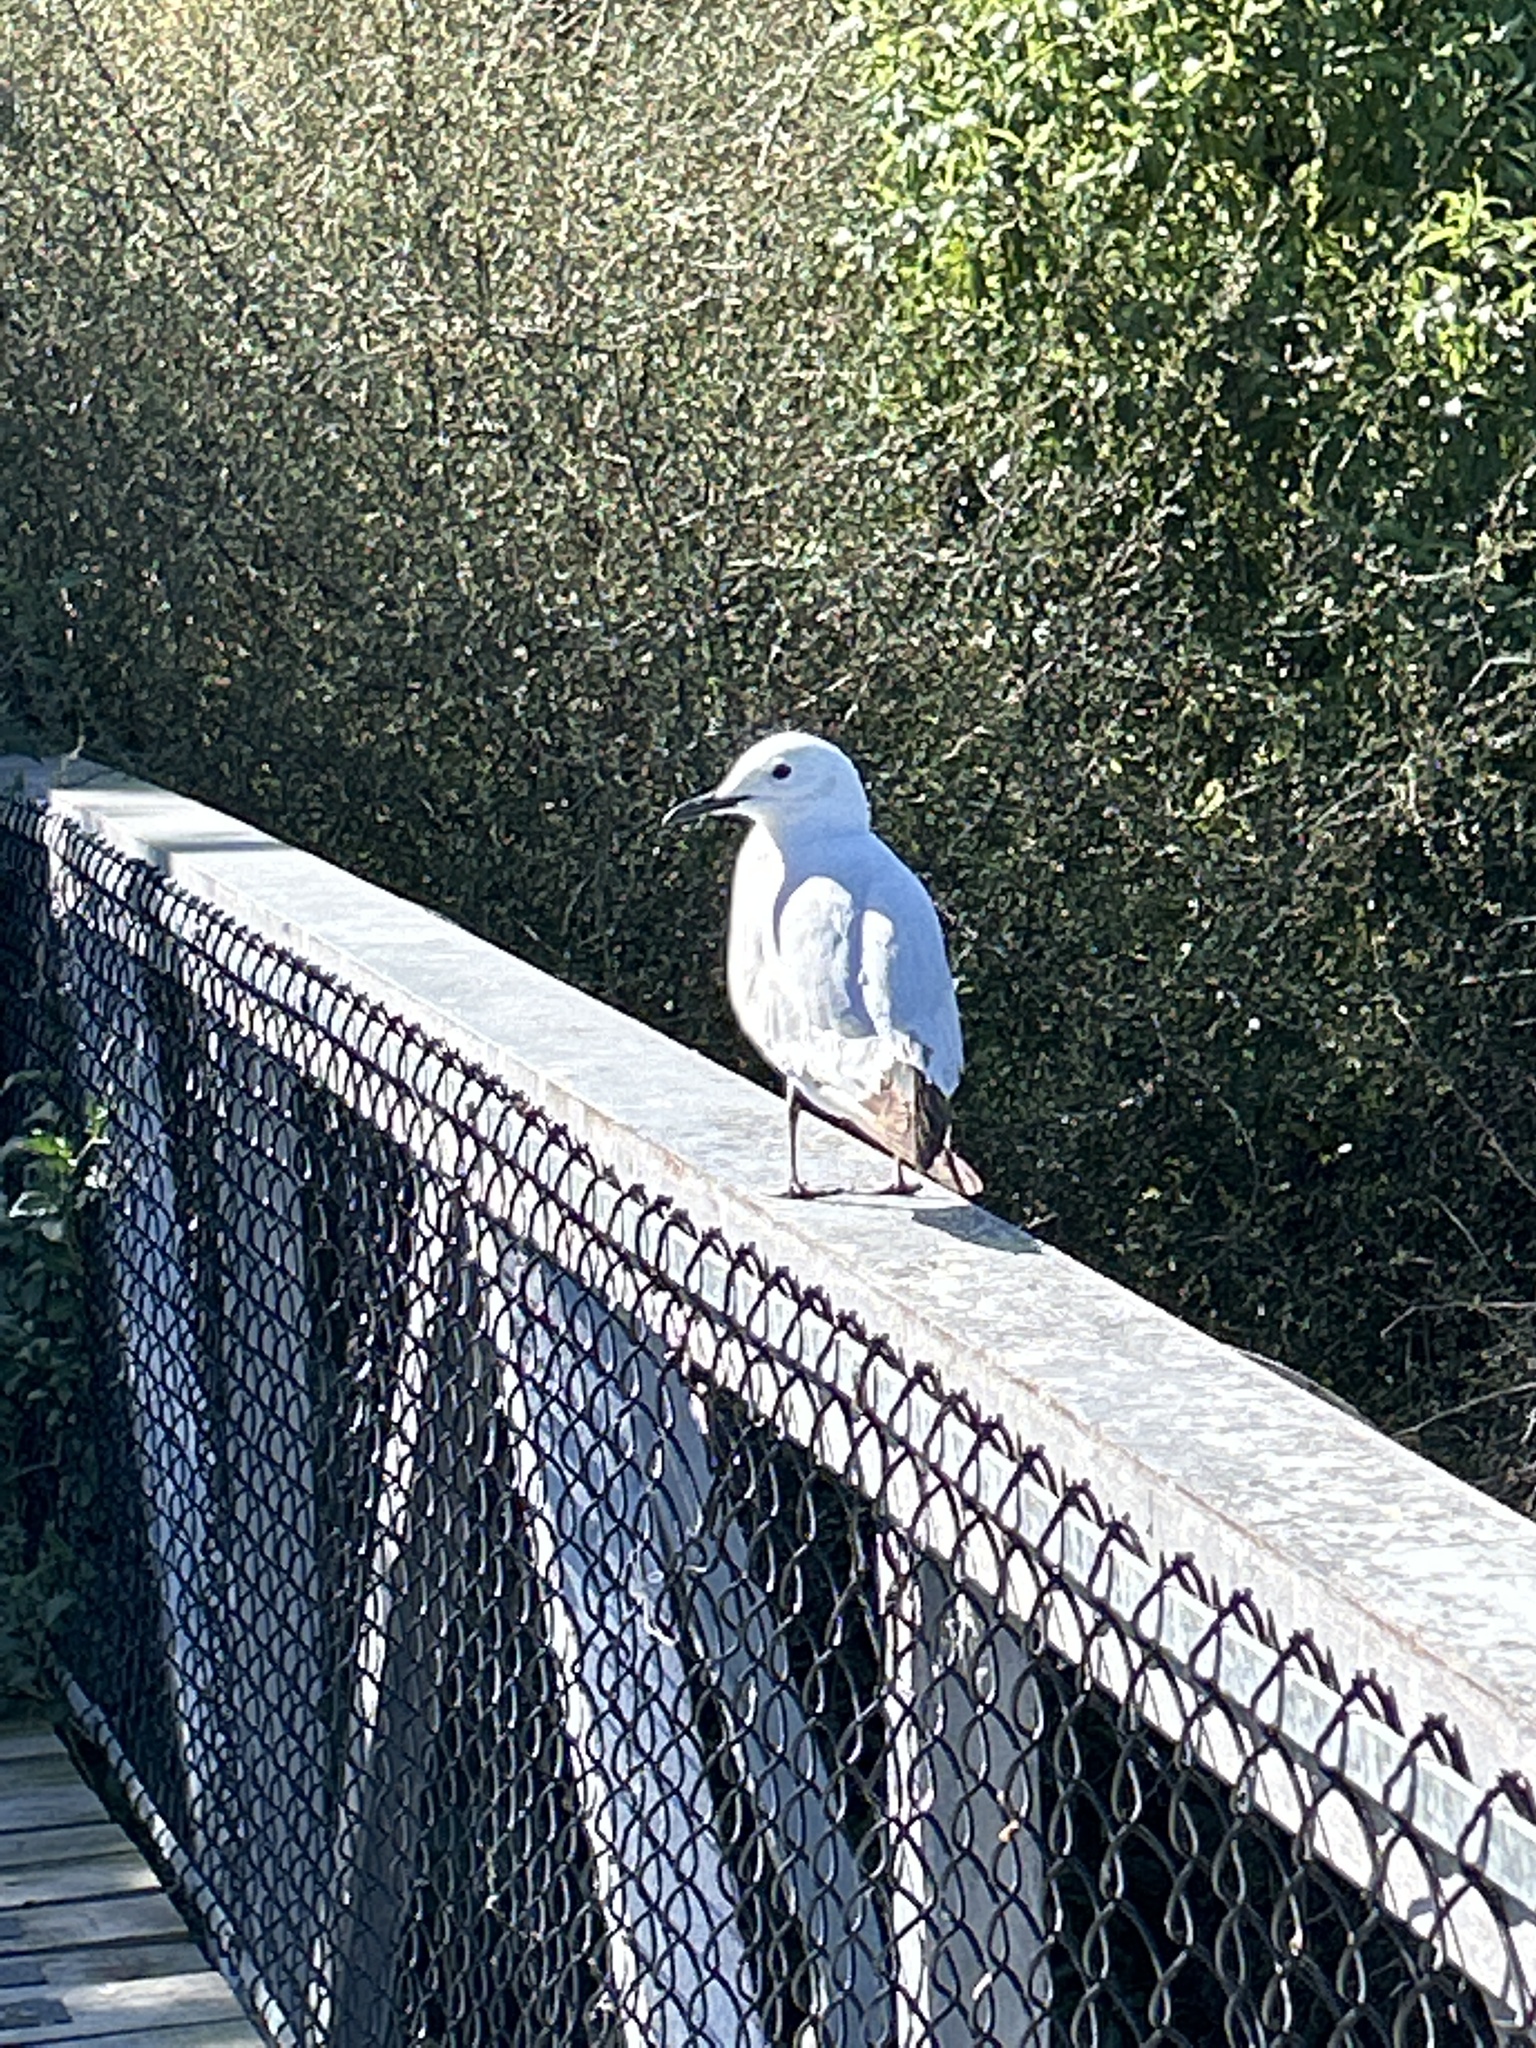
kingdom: Animalia
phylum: Chordata
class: Aves
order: Charadriiformes
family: Laridae
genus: Chroicocephalus
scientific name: Chroicocephalus bulleri
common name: Black-billed gull
